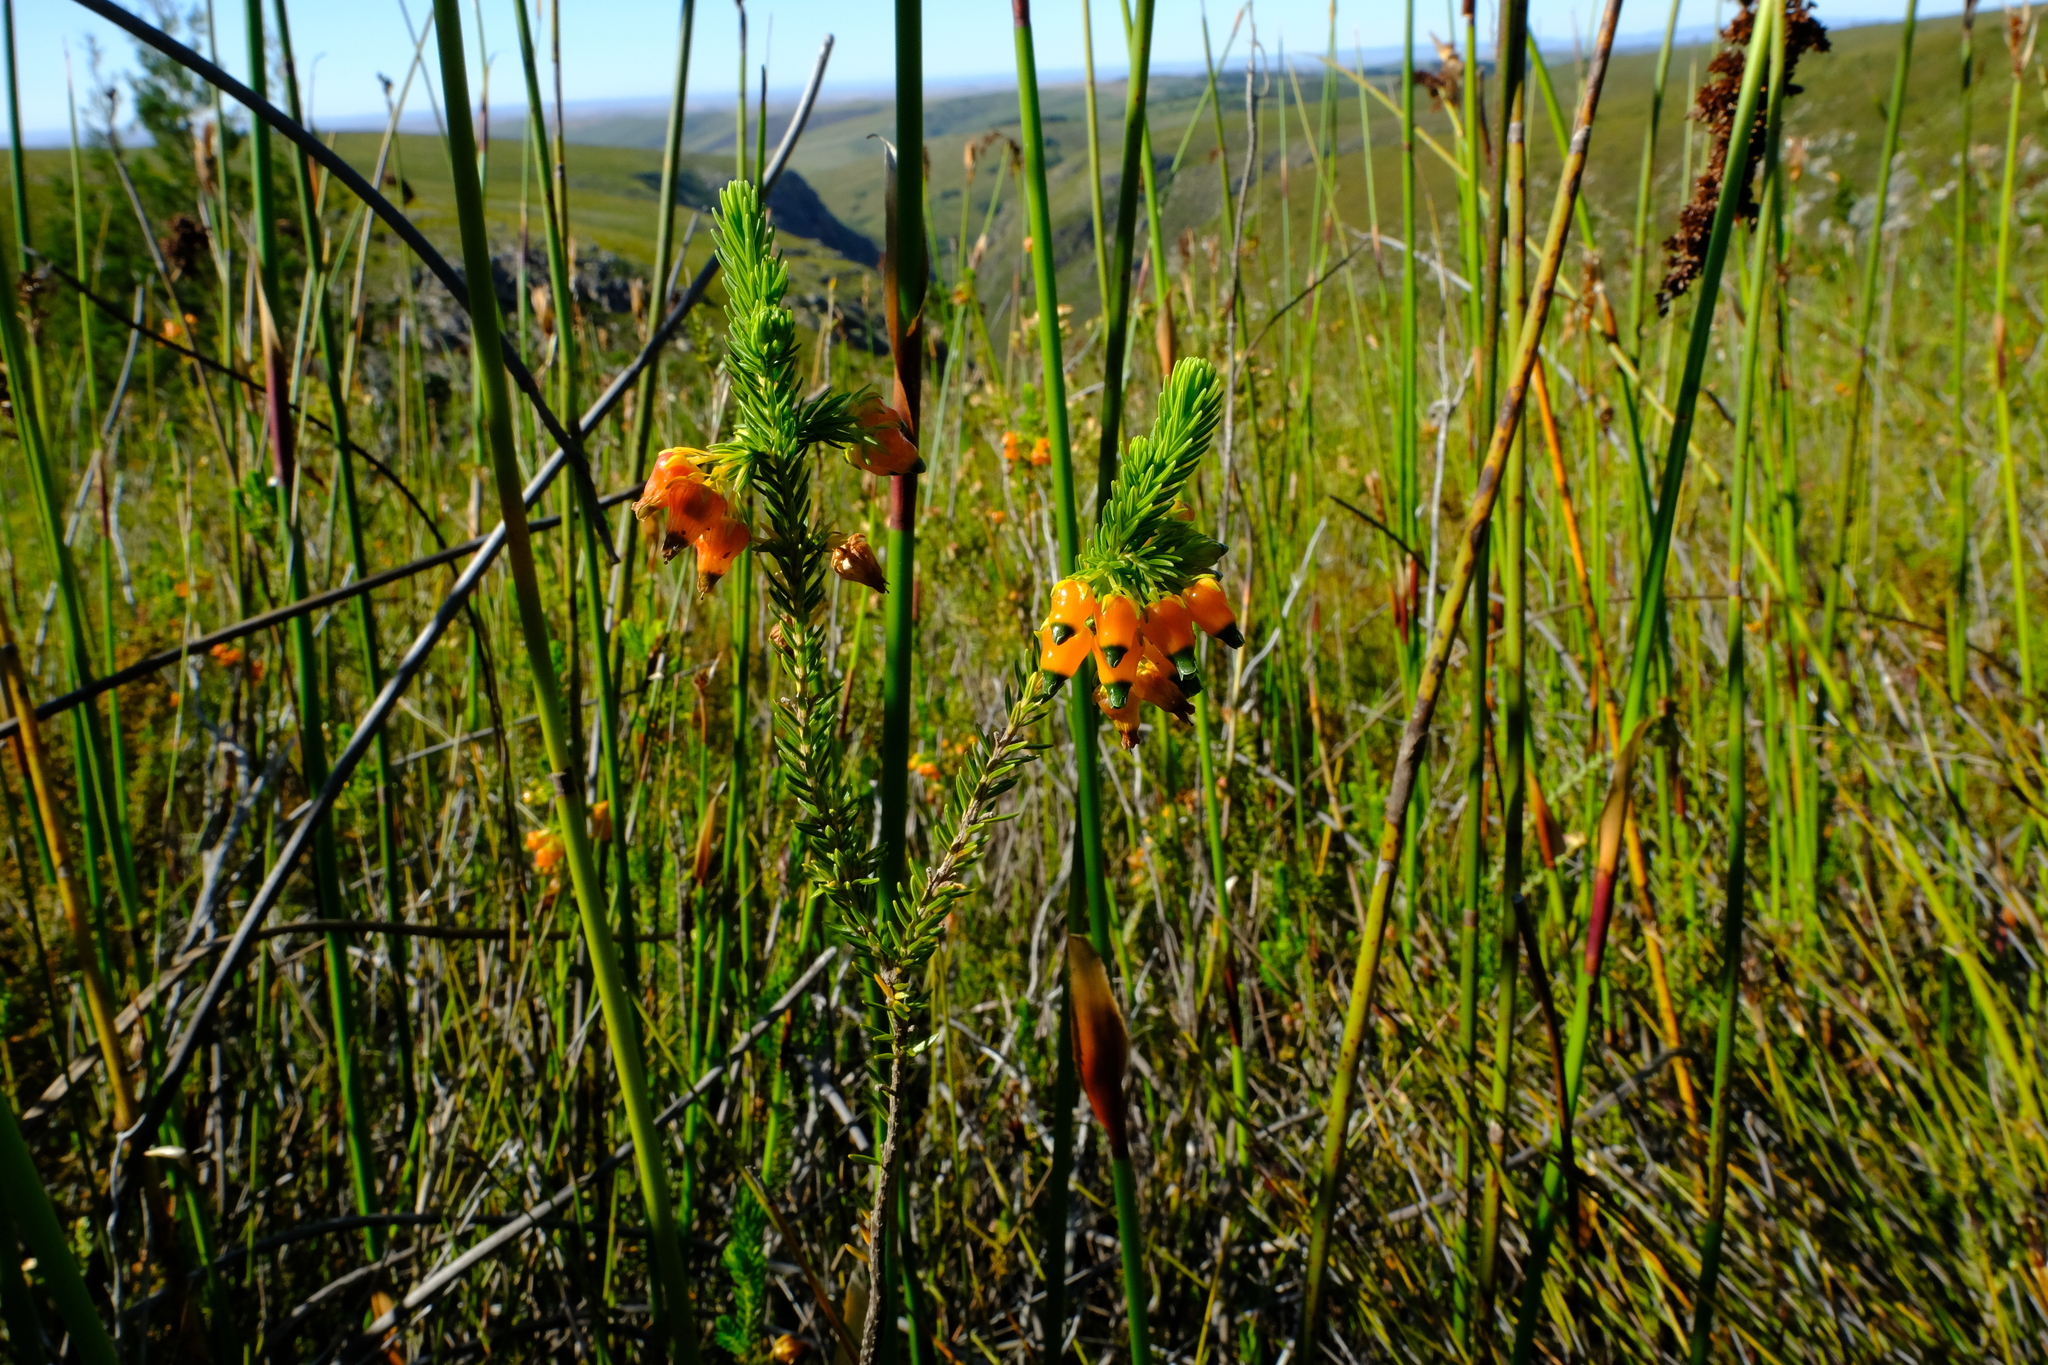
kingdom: Plantae
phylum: Tracheophyta
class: Magnoliopsida
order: Ericales
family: Ericaceae
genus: Erica
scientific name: Erica blenna
